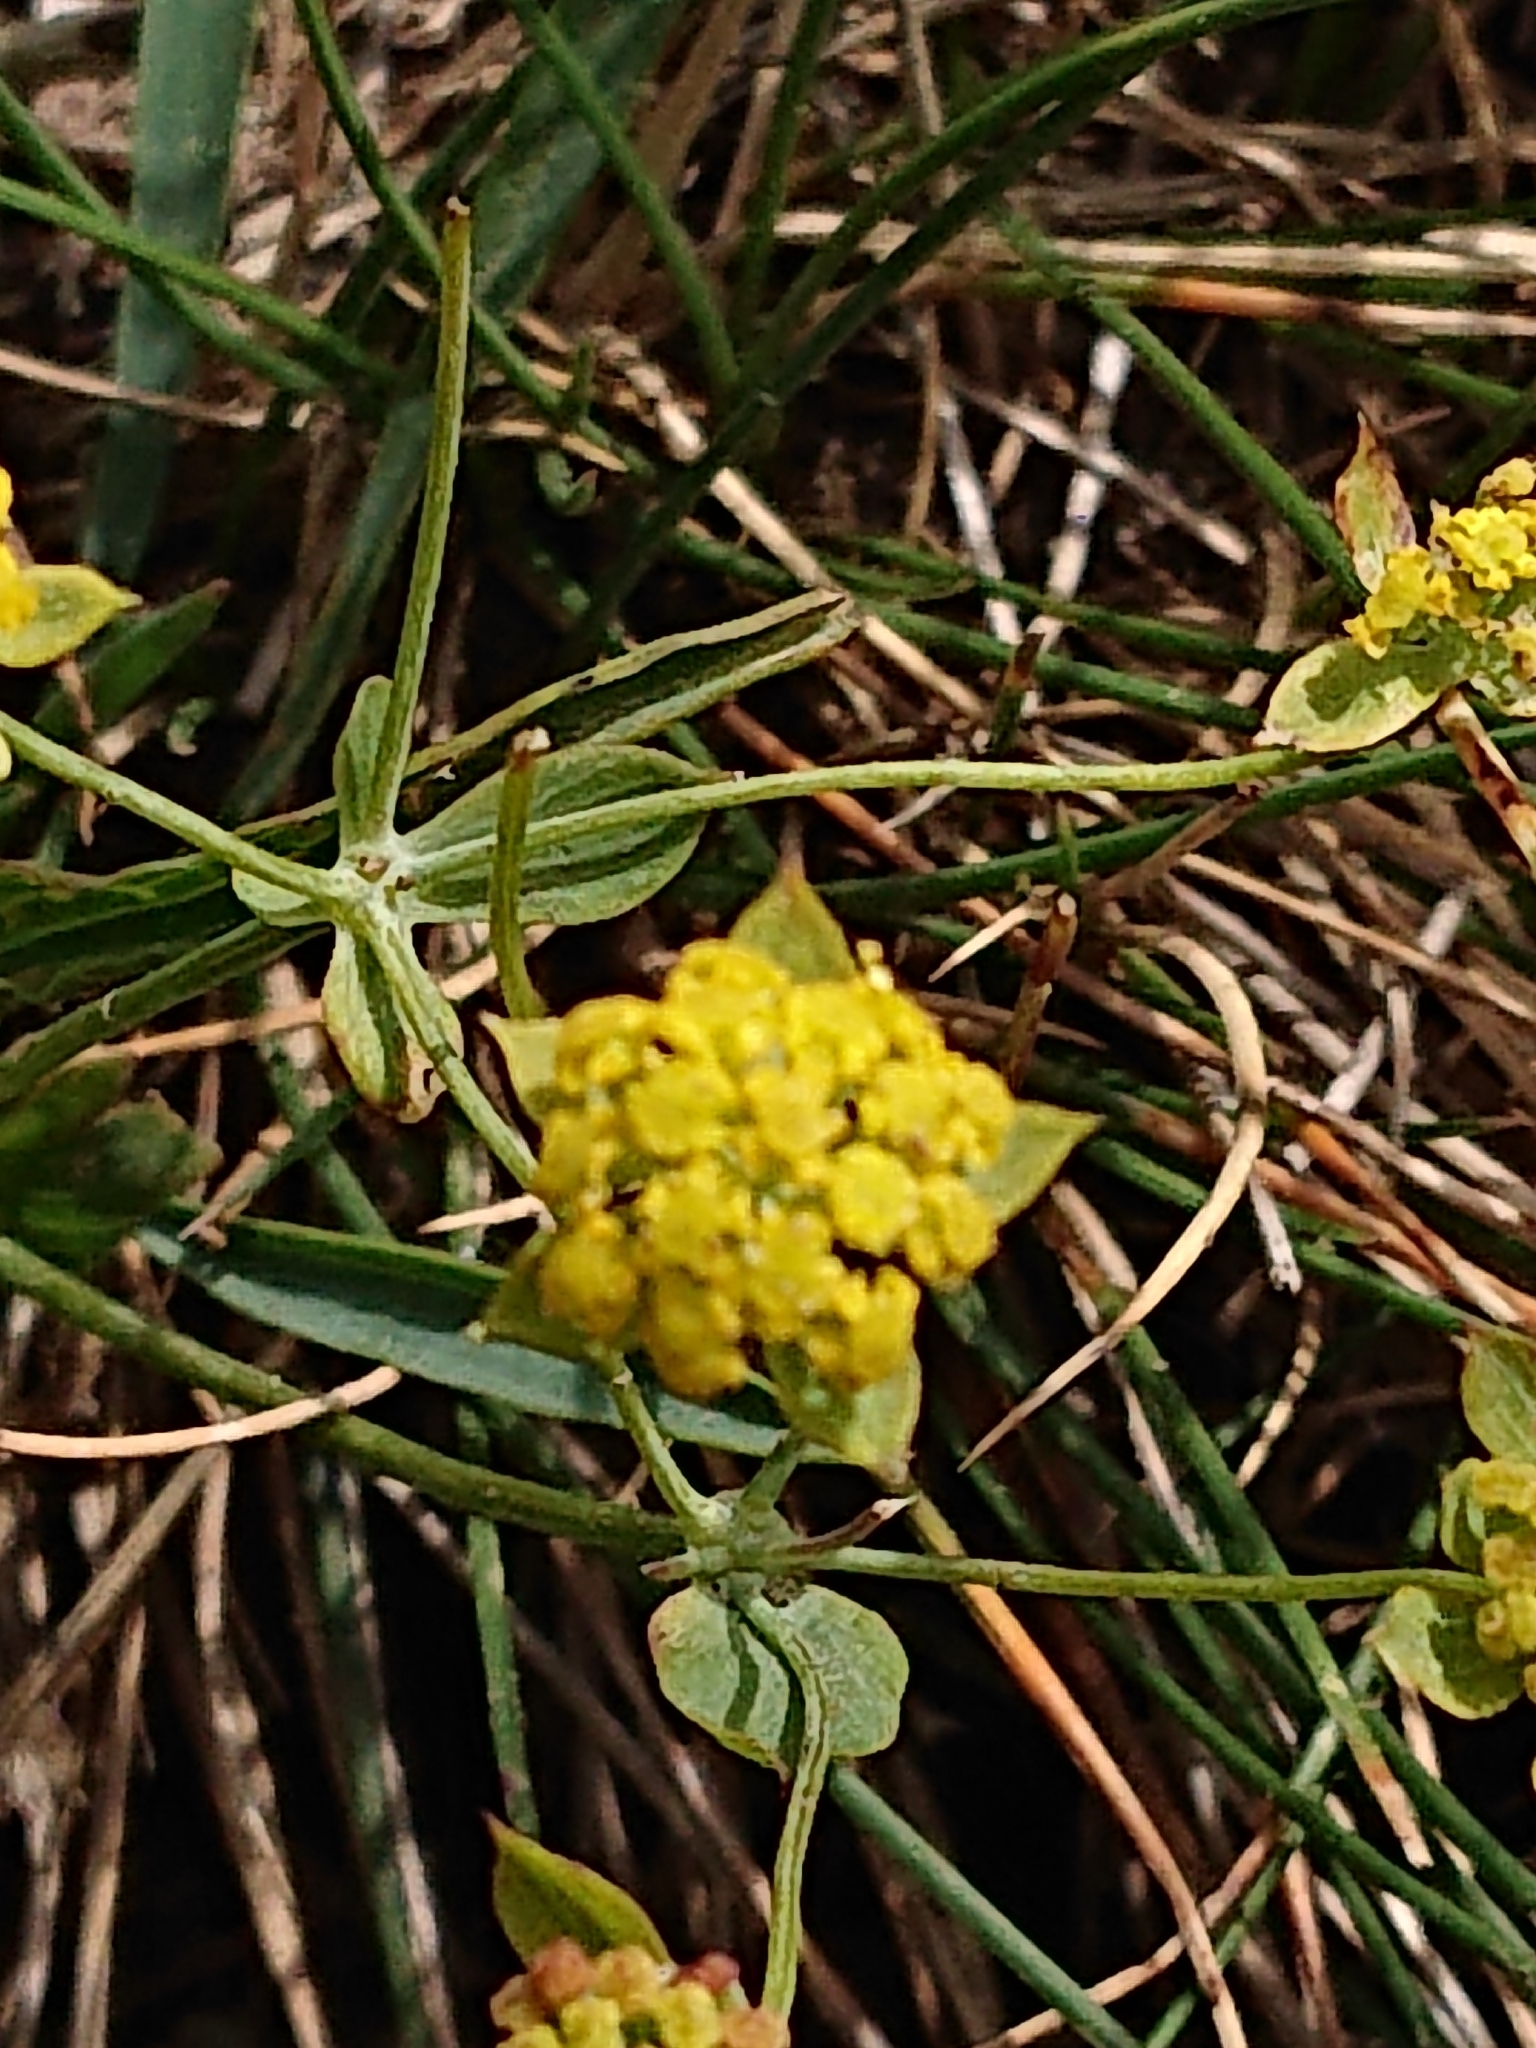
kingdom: Plantae
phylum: Tracheophyta
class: Magnoliopsida
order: Apiales
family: Apiaceae
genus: Bupleurum
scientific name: Bupleurum ranunculoides
